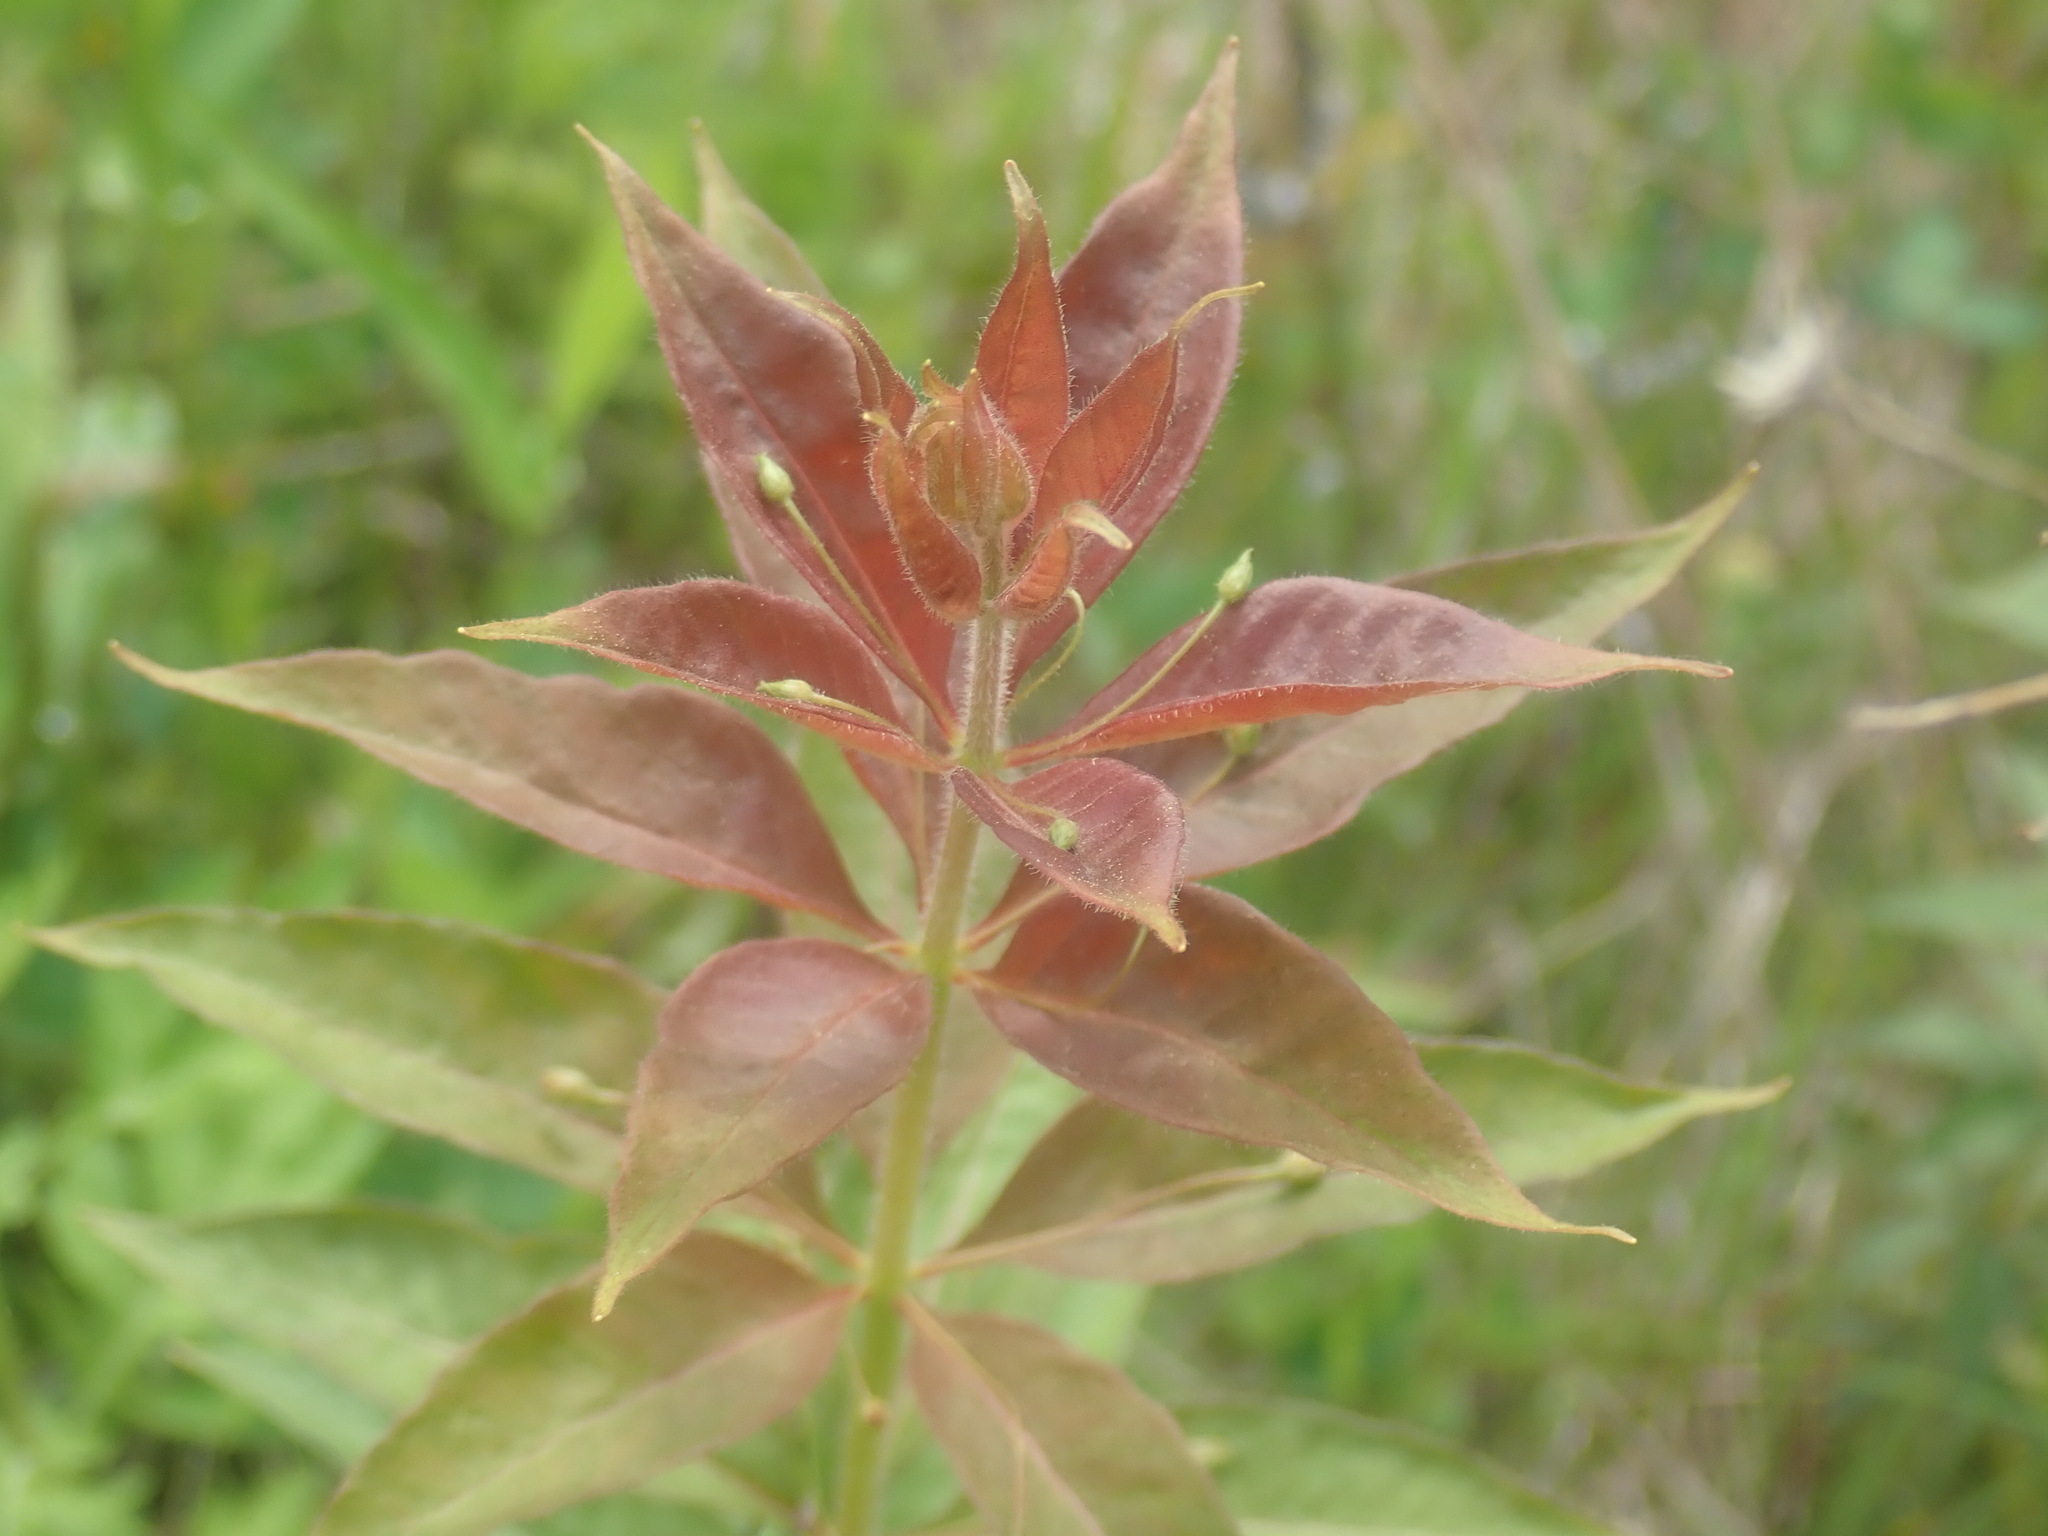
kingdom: Plantae
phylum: Tracheophyta
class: Magnoliopsida
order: Ericales
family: Primulaceae
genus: Lysimachia
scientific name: Lysimachia quadrifolia
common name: Whorled loosestrife
